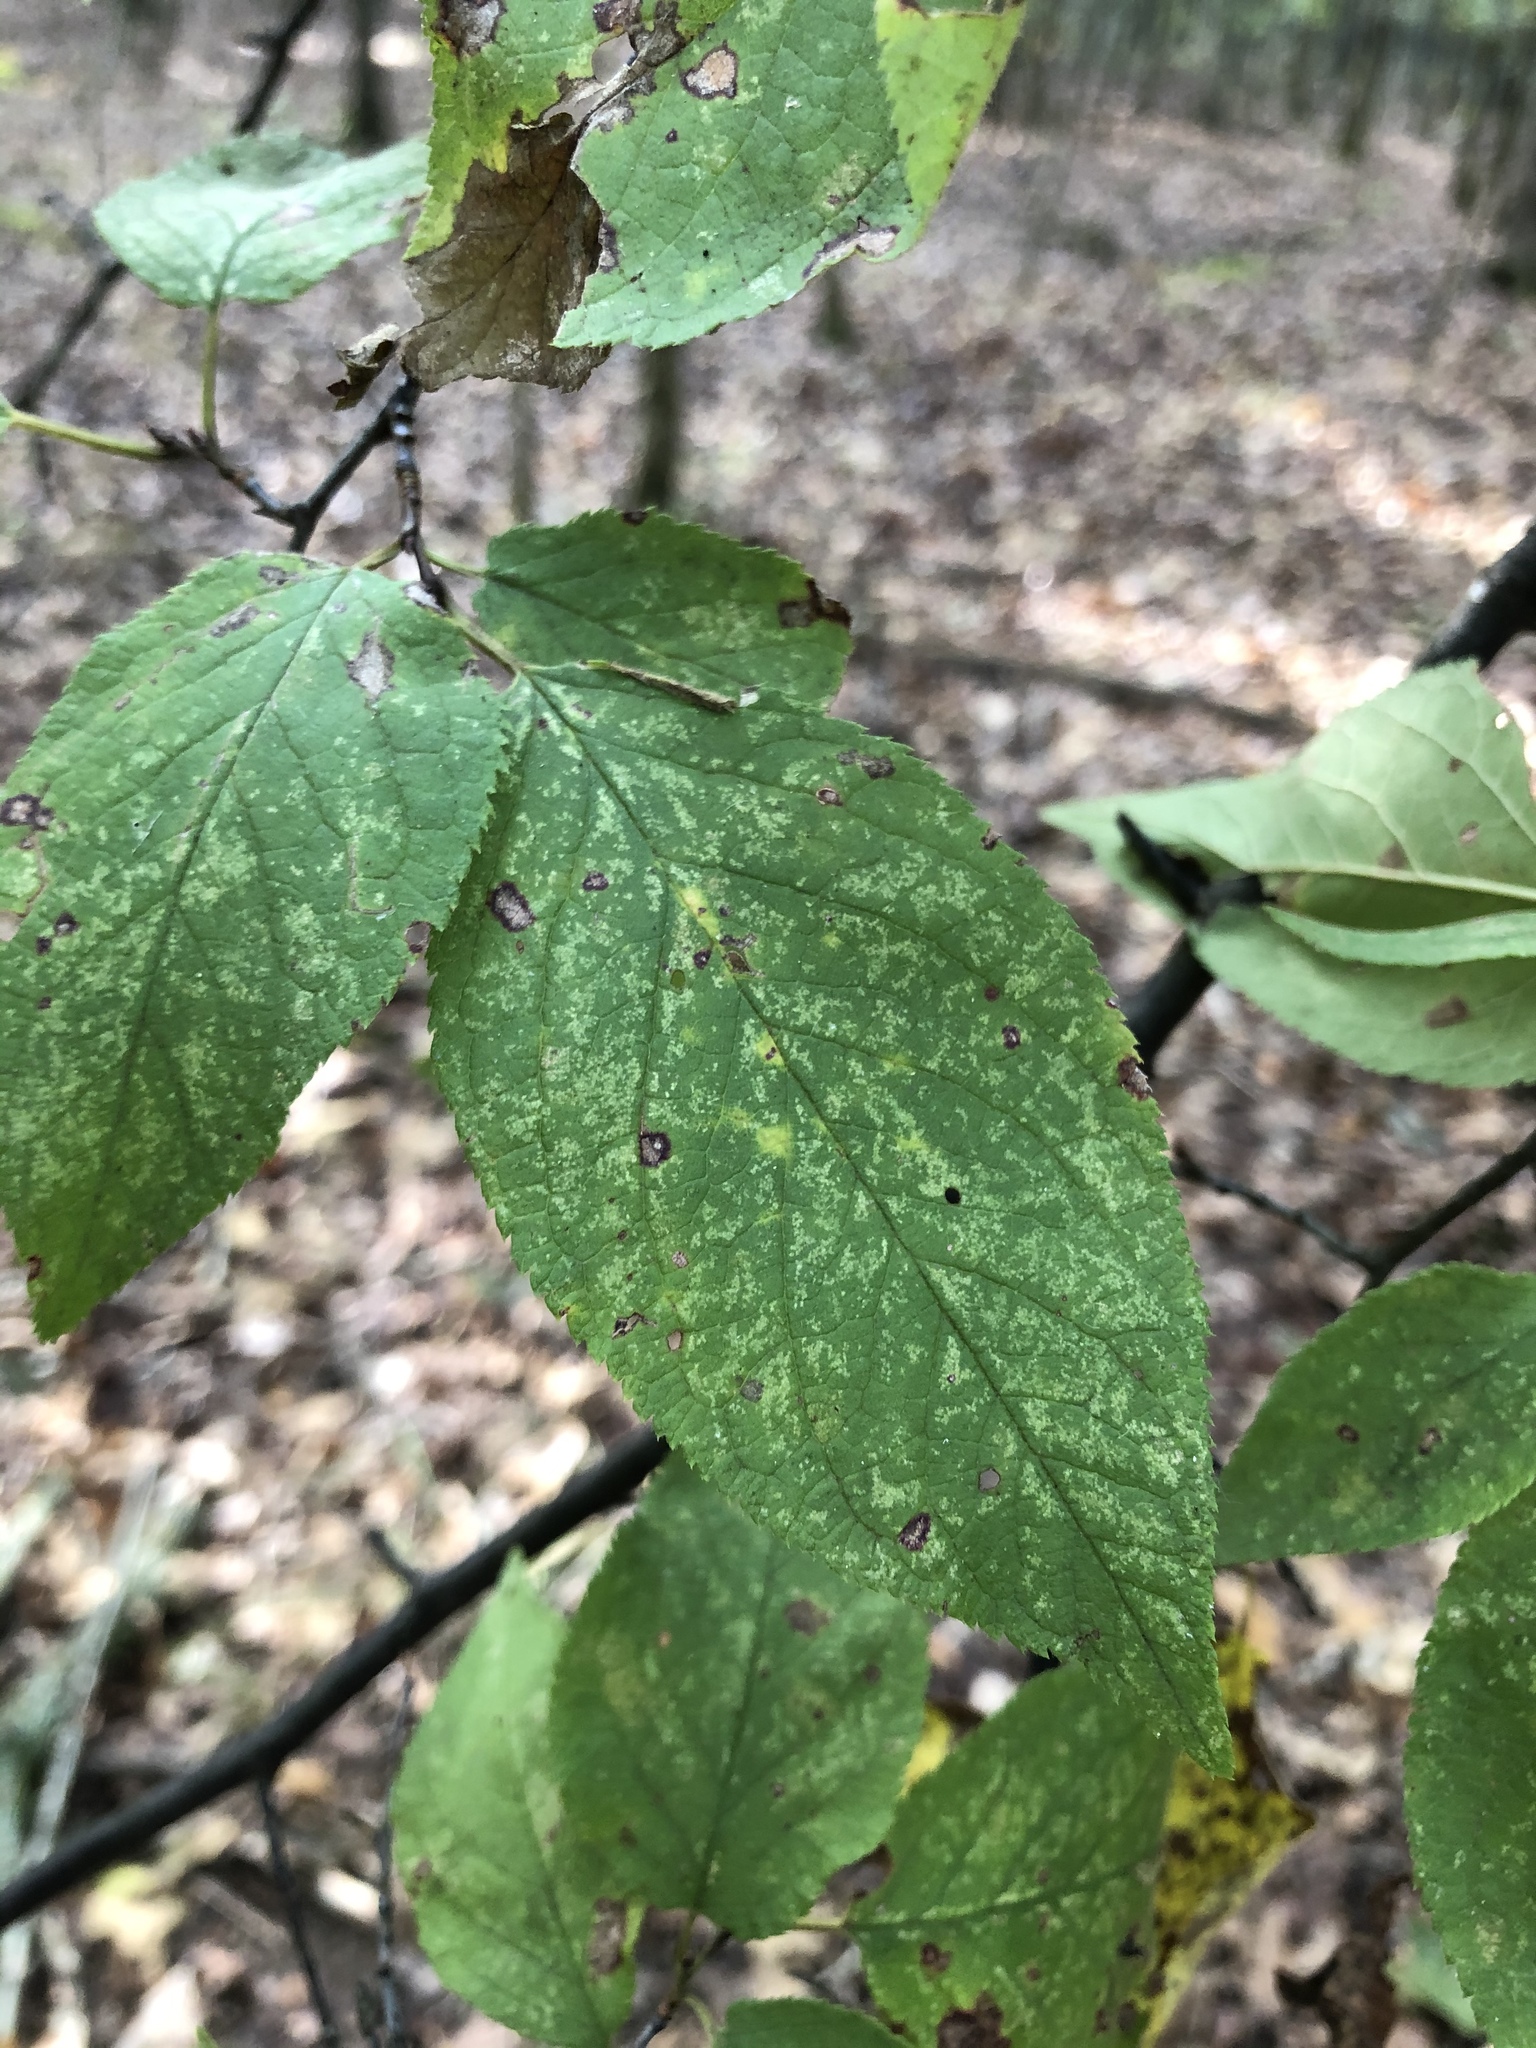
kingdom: Plantae
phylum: Tracheophyta
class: Magnoliopsida
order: Rosales
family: Rosaceae
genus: Prunus
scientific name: Prunus mexicana
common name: Mexican plum
